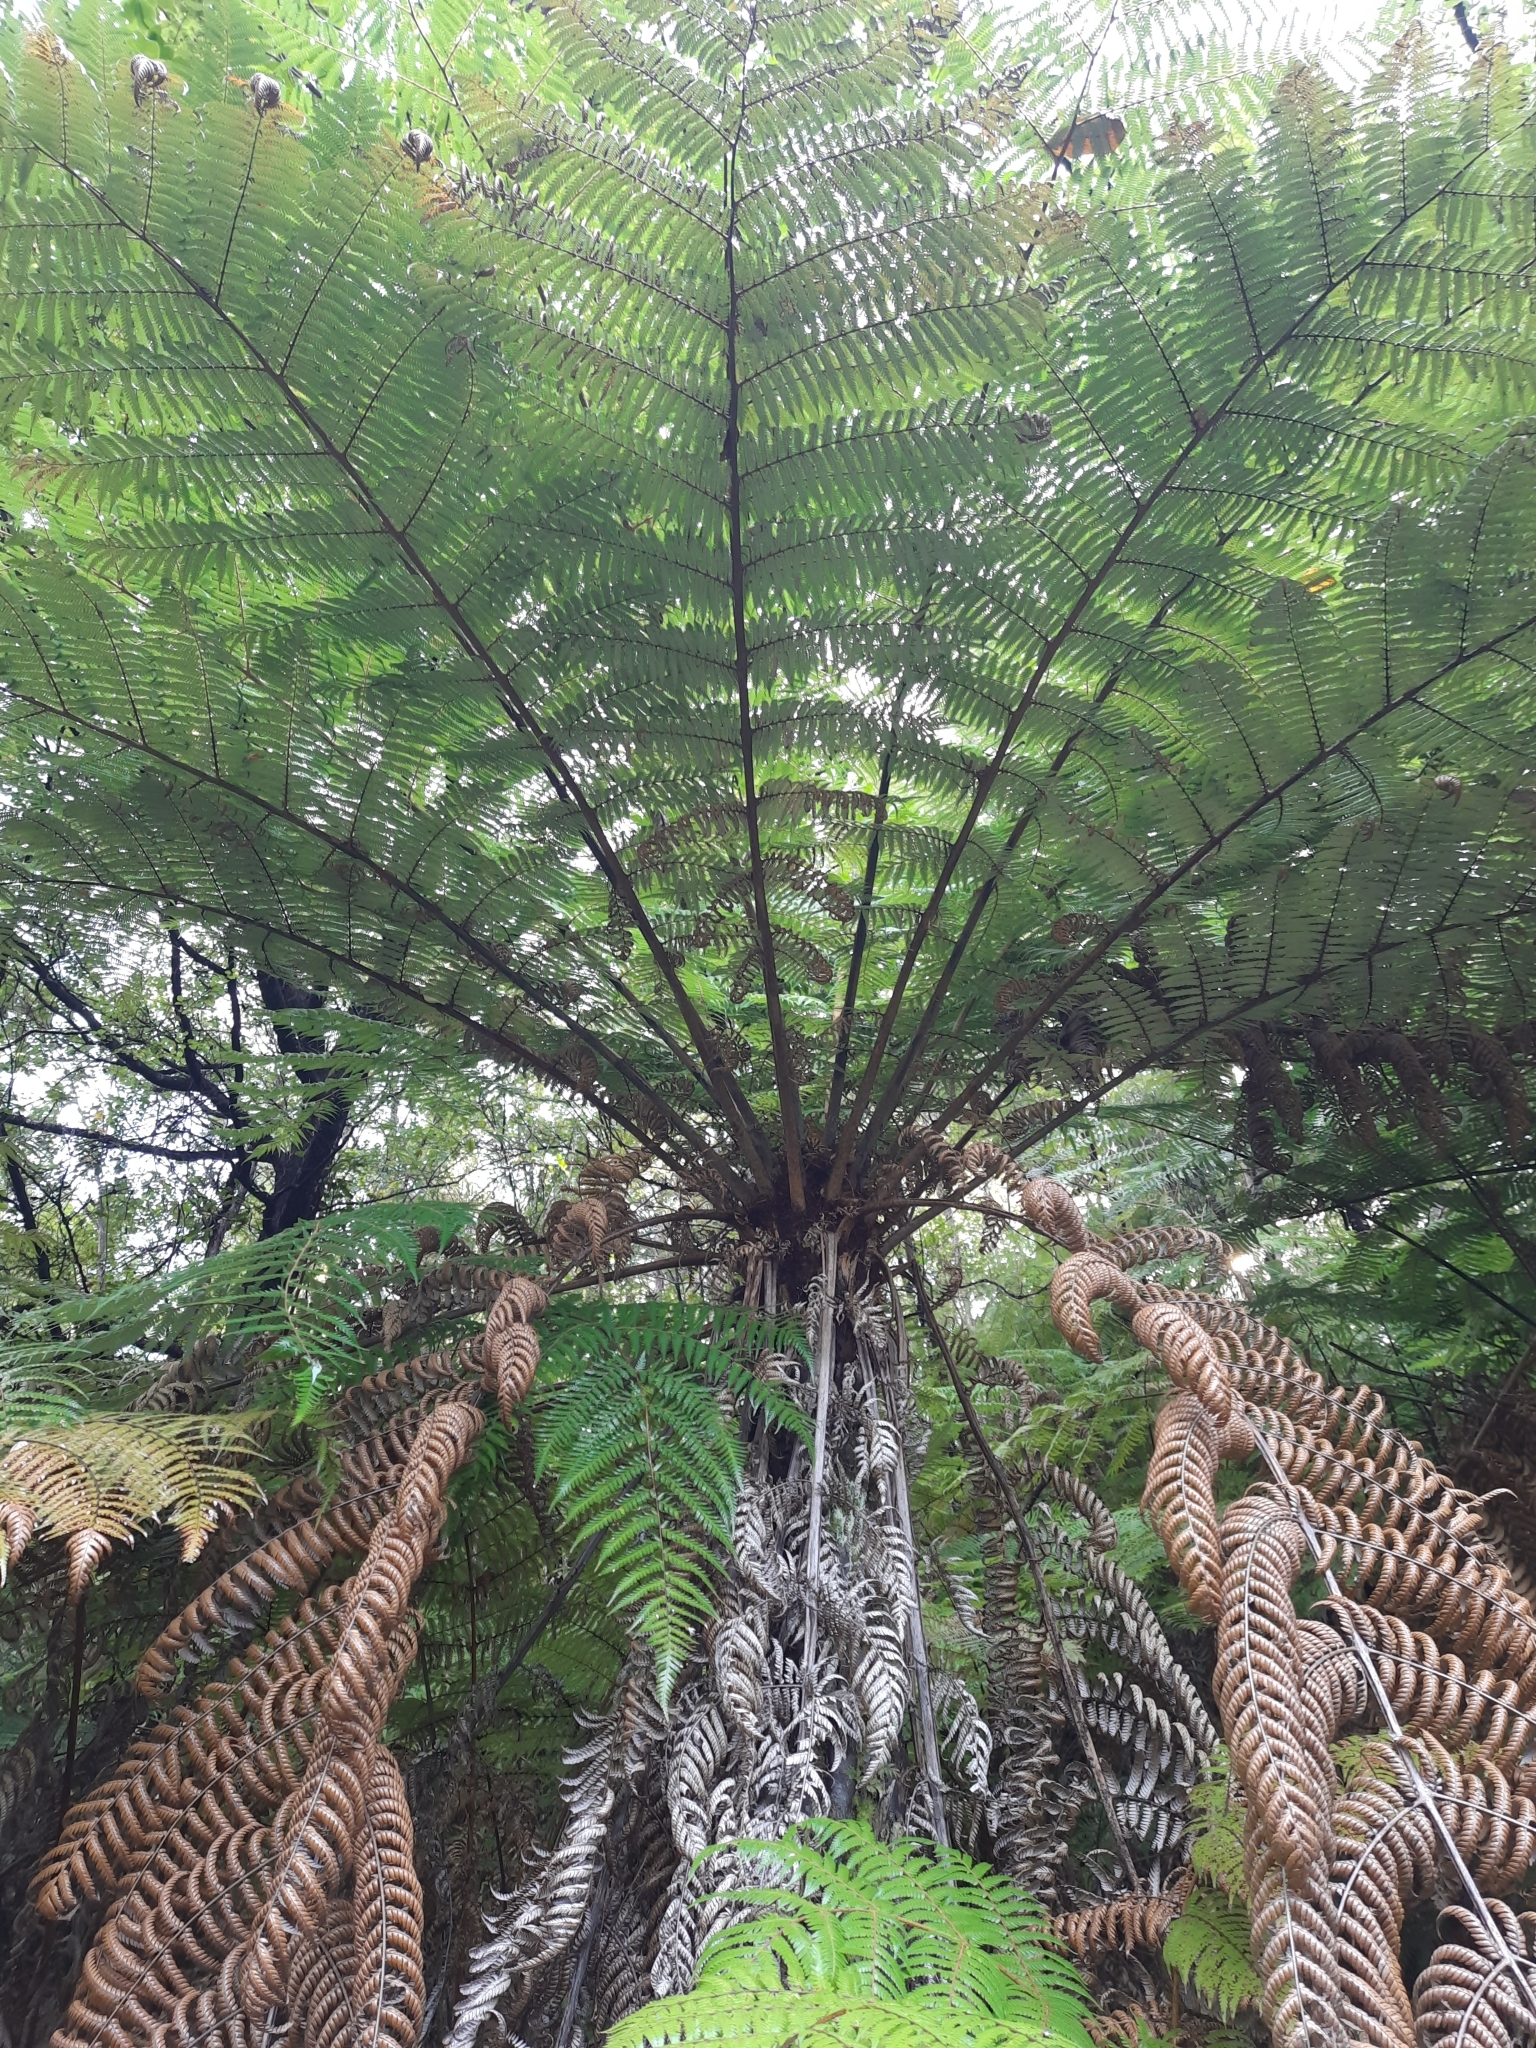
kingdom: Plantae
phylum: Tracheophyta
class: Polypodiopsida
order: Cyatheales
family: Cyatheaceae
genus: Alsophila
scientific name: Alsophila dealbata
